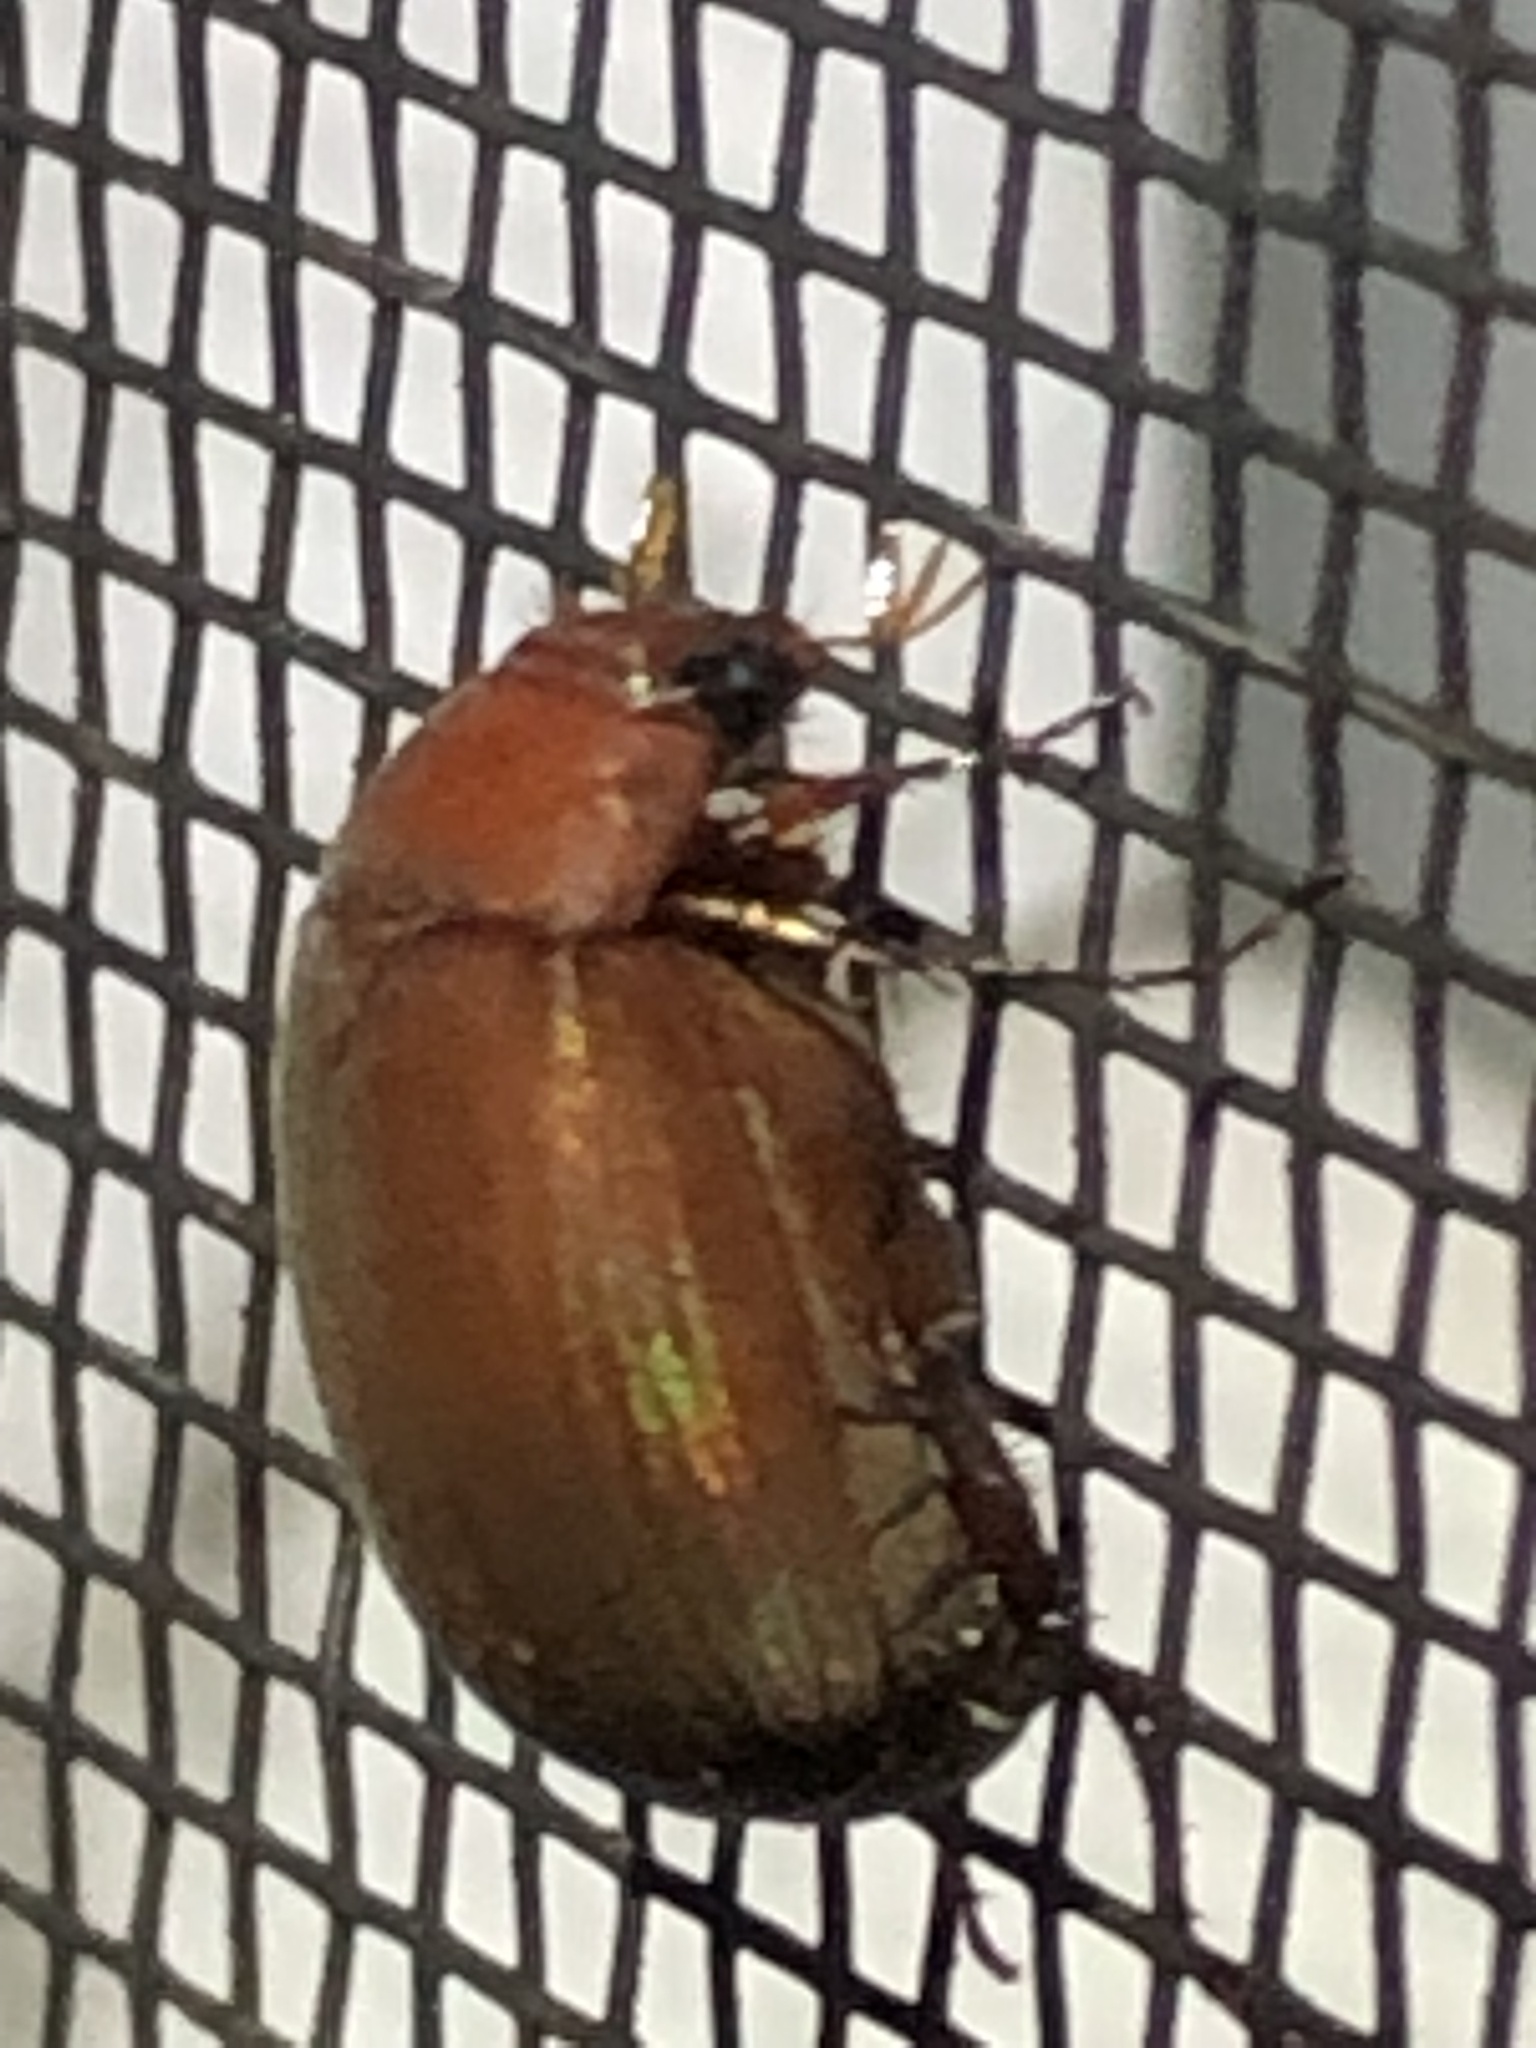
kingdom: Animalia
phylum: Arthropoda
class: Insecta
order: Coleoptera
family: Scarabaeidae
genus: Maladera
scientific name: Maladera formosae
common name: Asiatic garden beetle
